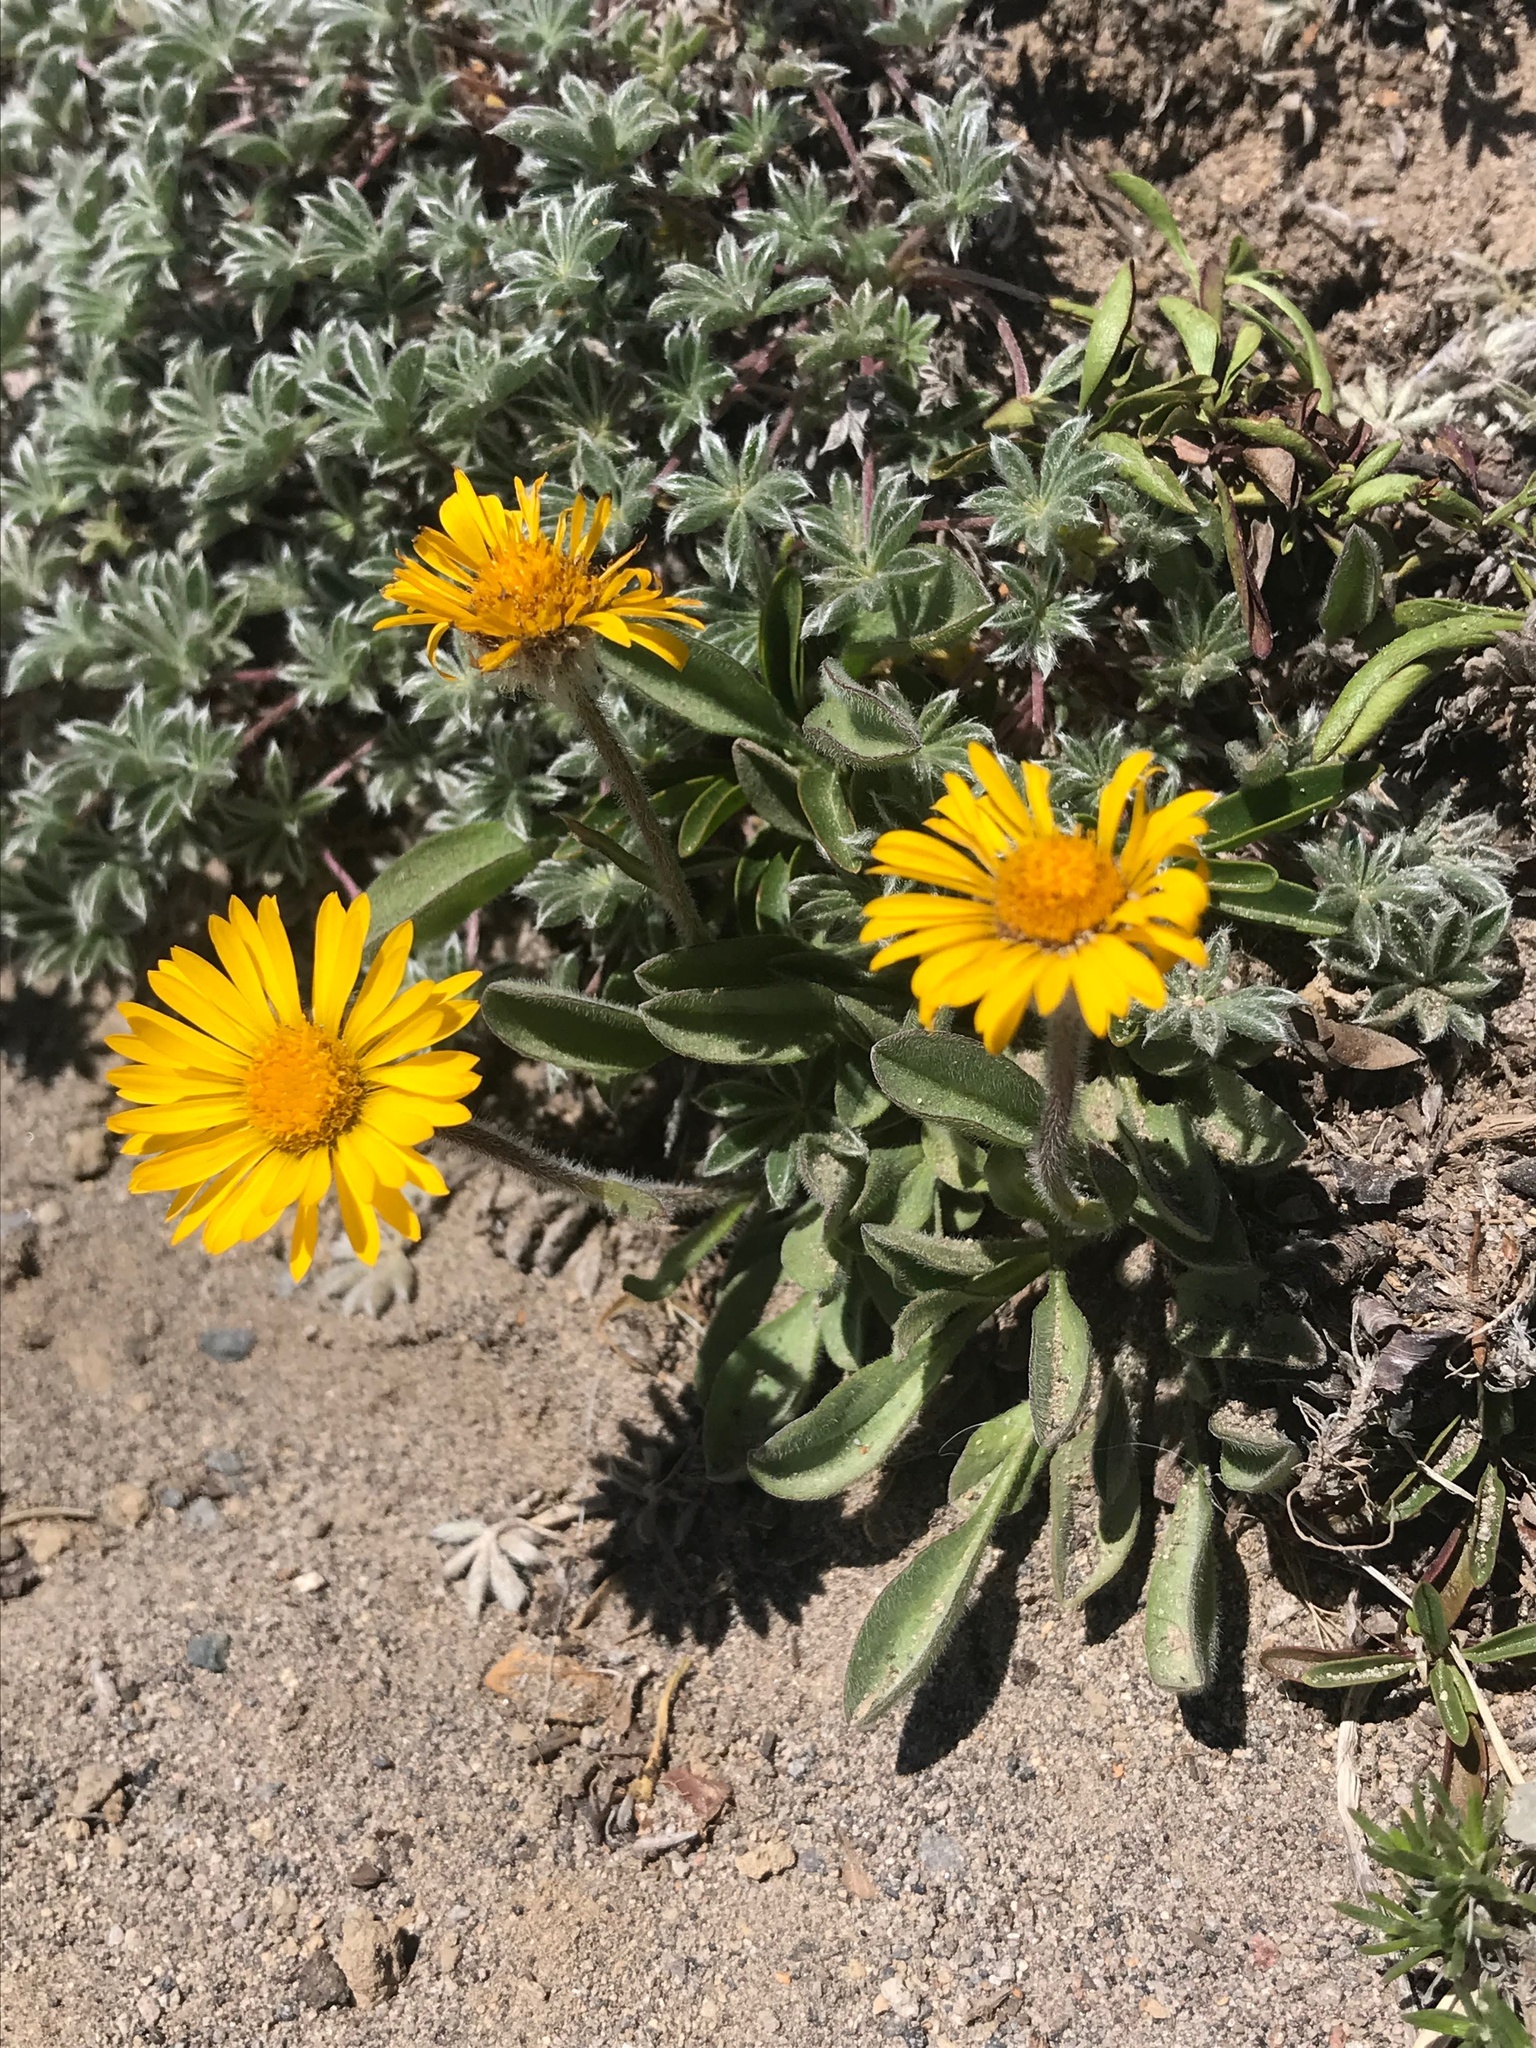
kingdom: Plantae
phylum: Tracheophyta
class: Magnoliopsida
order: Asterales
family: Asteraceae
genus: Erigeron
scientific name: Erigeron aureus
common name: Alpine yellow fleabane
